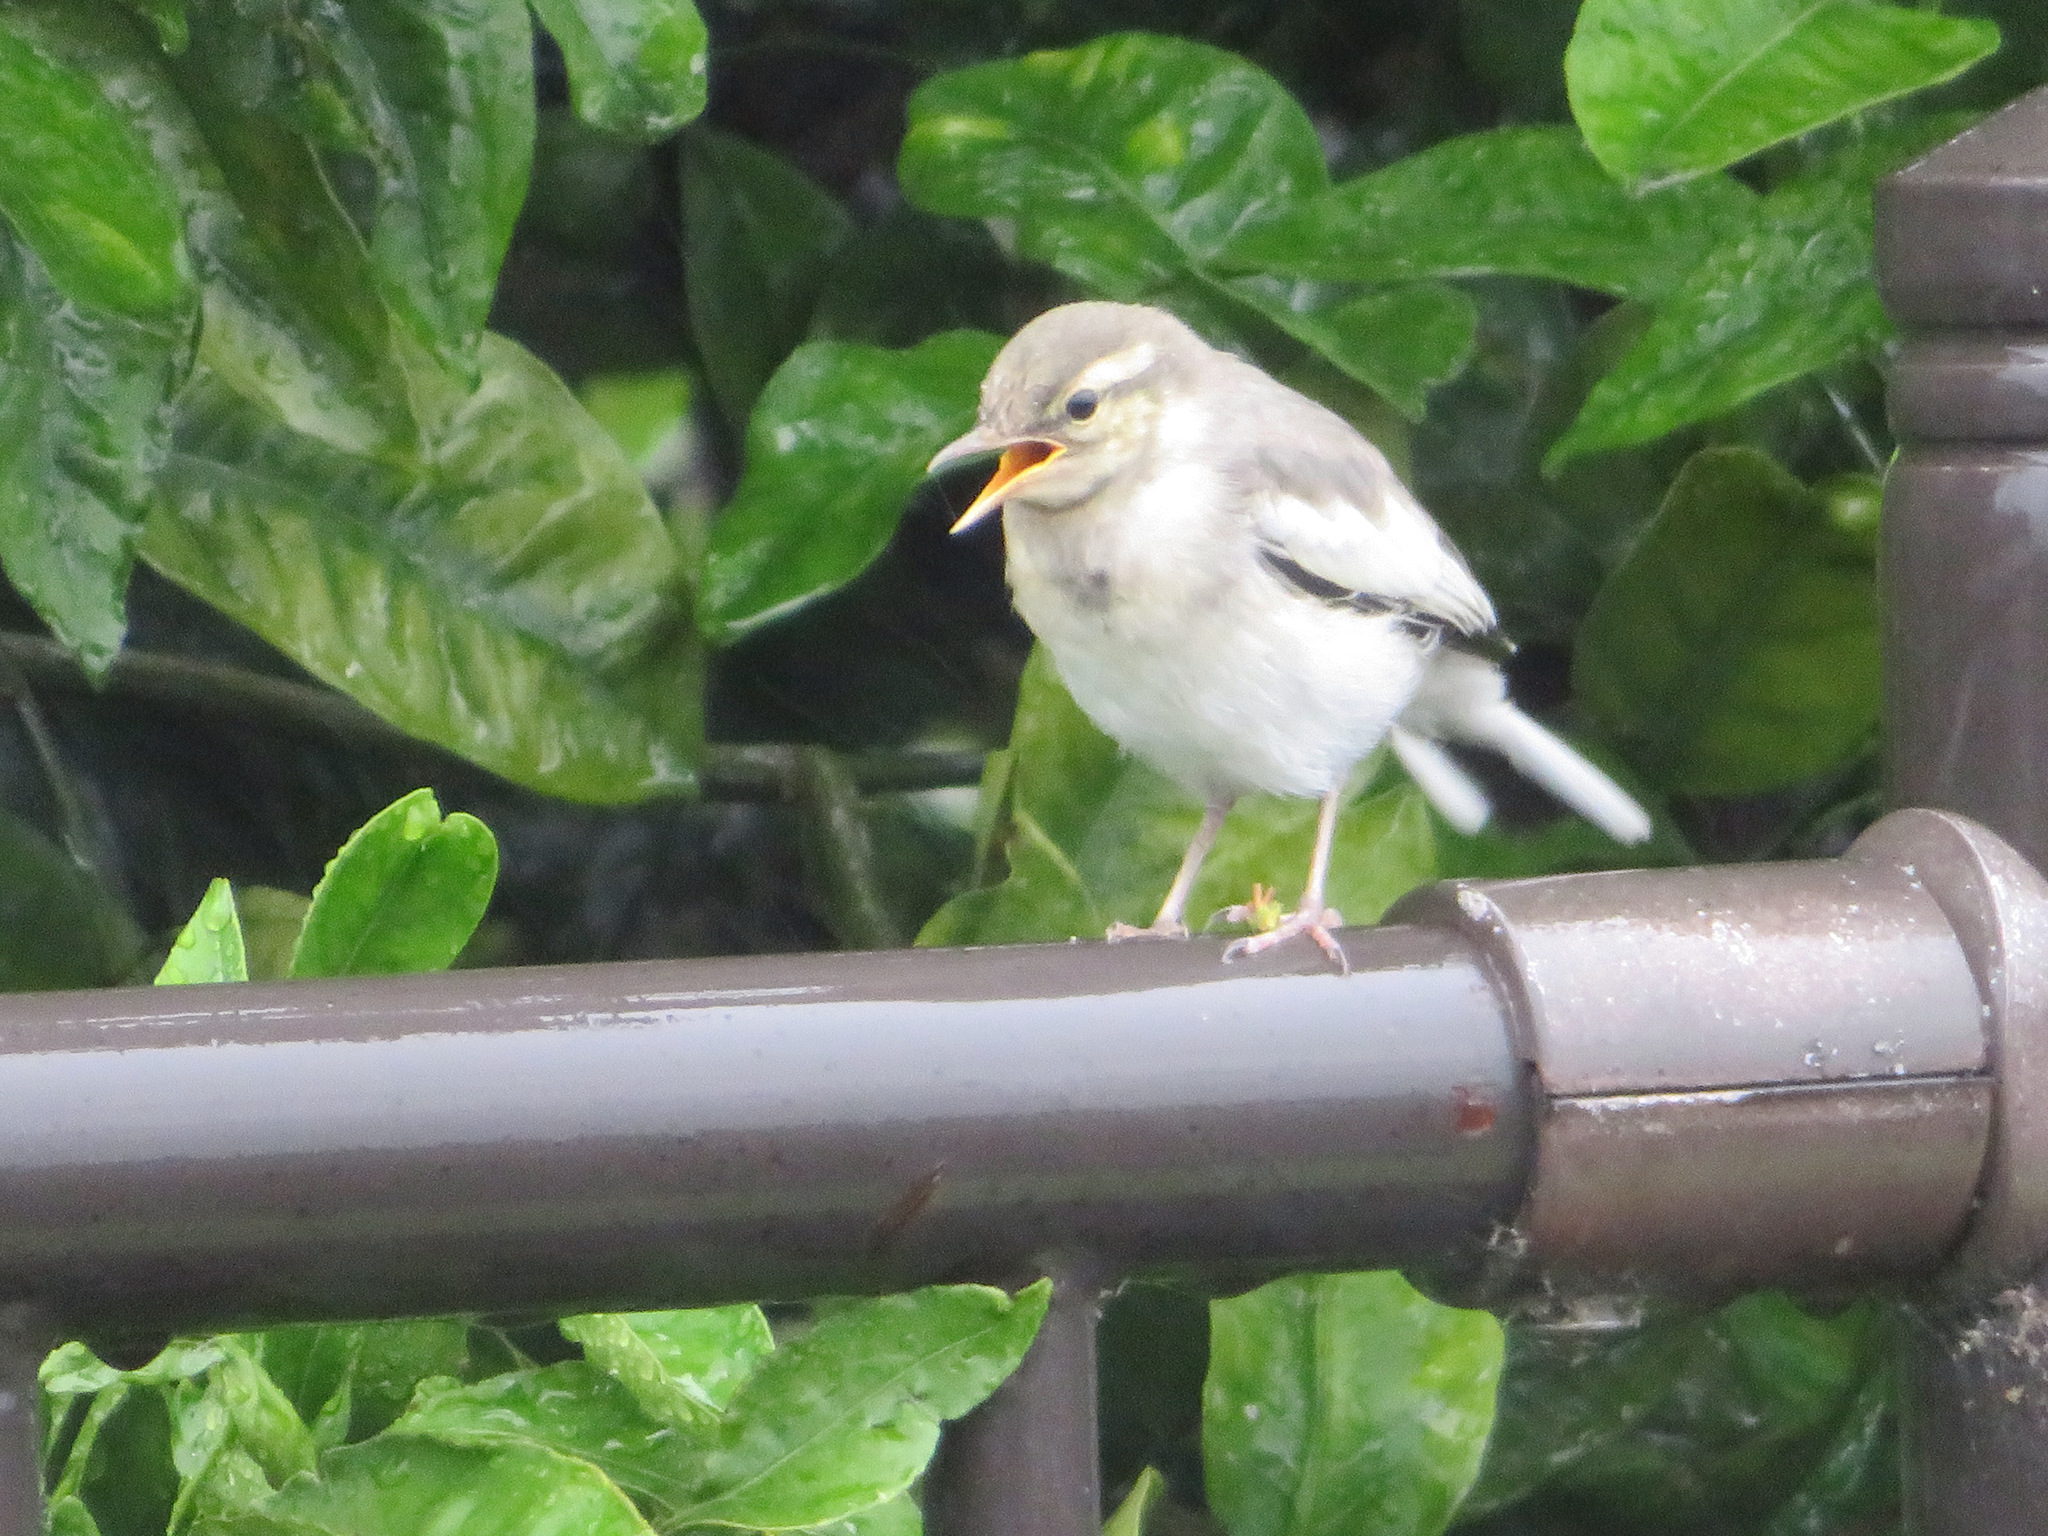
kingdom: Animalia
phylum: Chordata
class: Aves
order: Passeriformes
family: Motacillidae
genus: Motacilla
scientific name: Motacilla alba
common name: White wagtail
